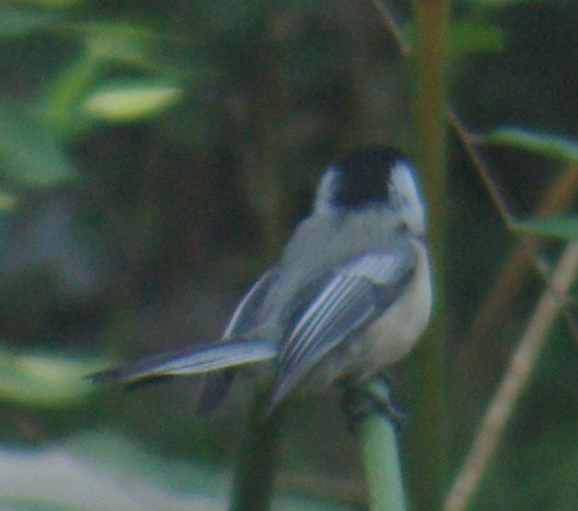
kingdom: Animalia
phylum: Chordata
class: Aves
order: Passeriformes
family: Paridae
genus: Poecile
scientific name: Poecile atricapillus
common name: Black-capped chickadee
